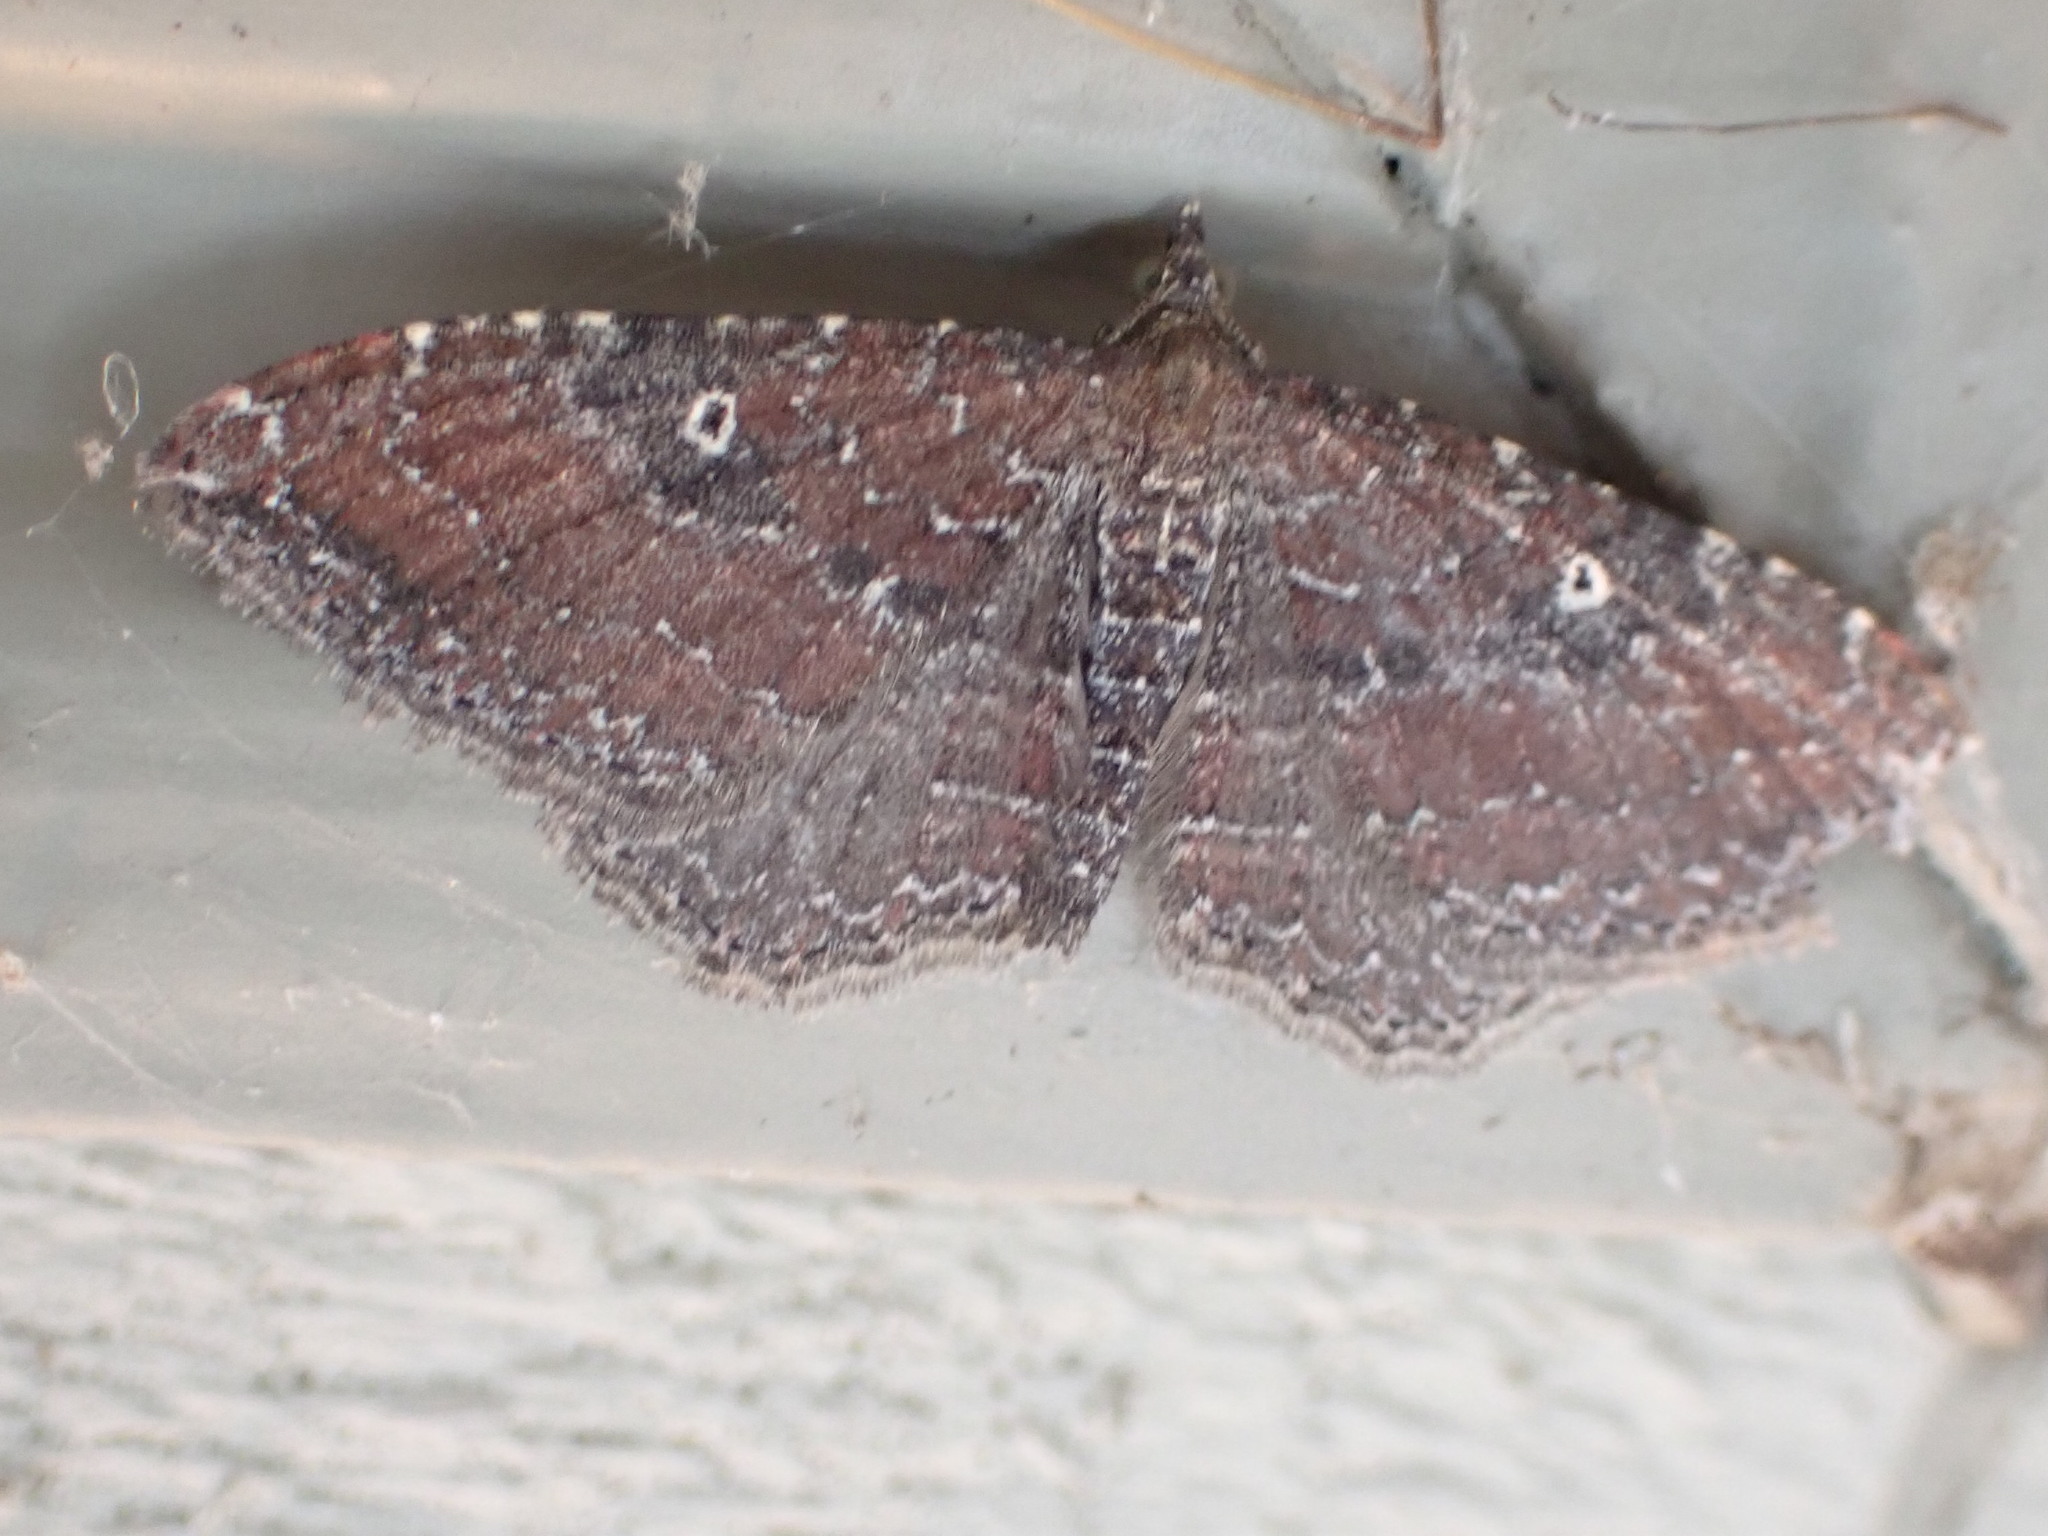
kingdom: Animalia
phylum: Arthropoda
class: Insecta
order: Lepidoptera
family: Geometridae
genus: Orthonama
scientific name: Orthonama obstipata
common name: The gem
